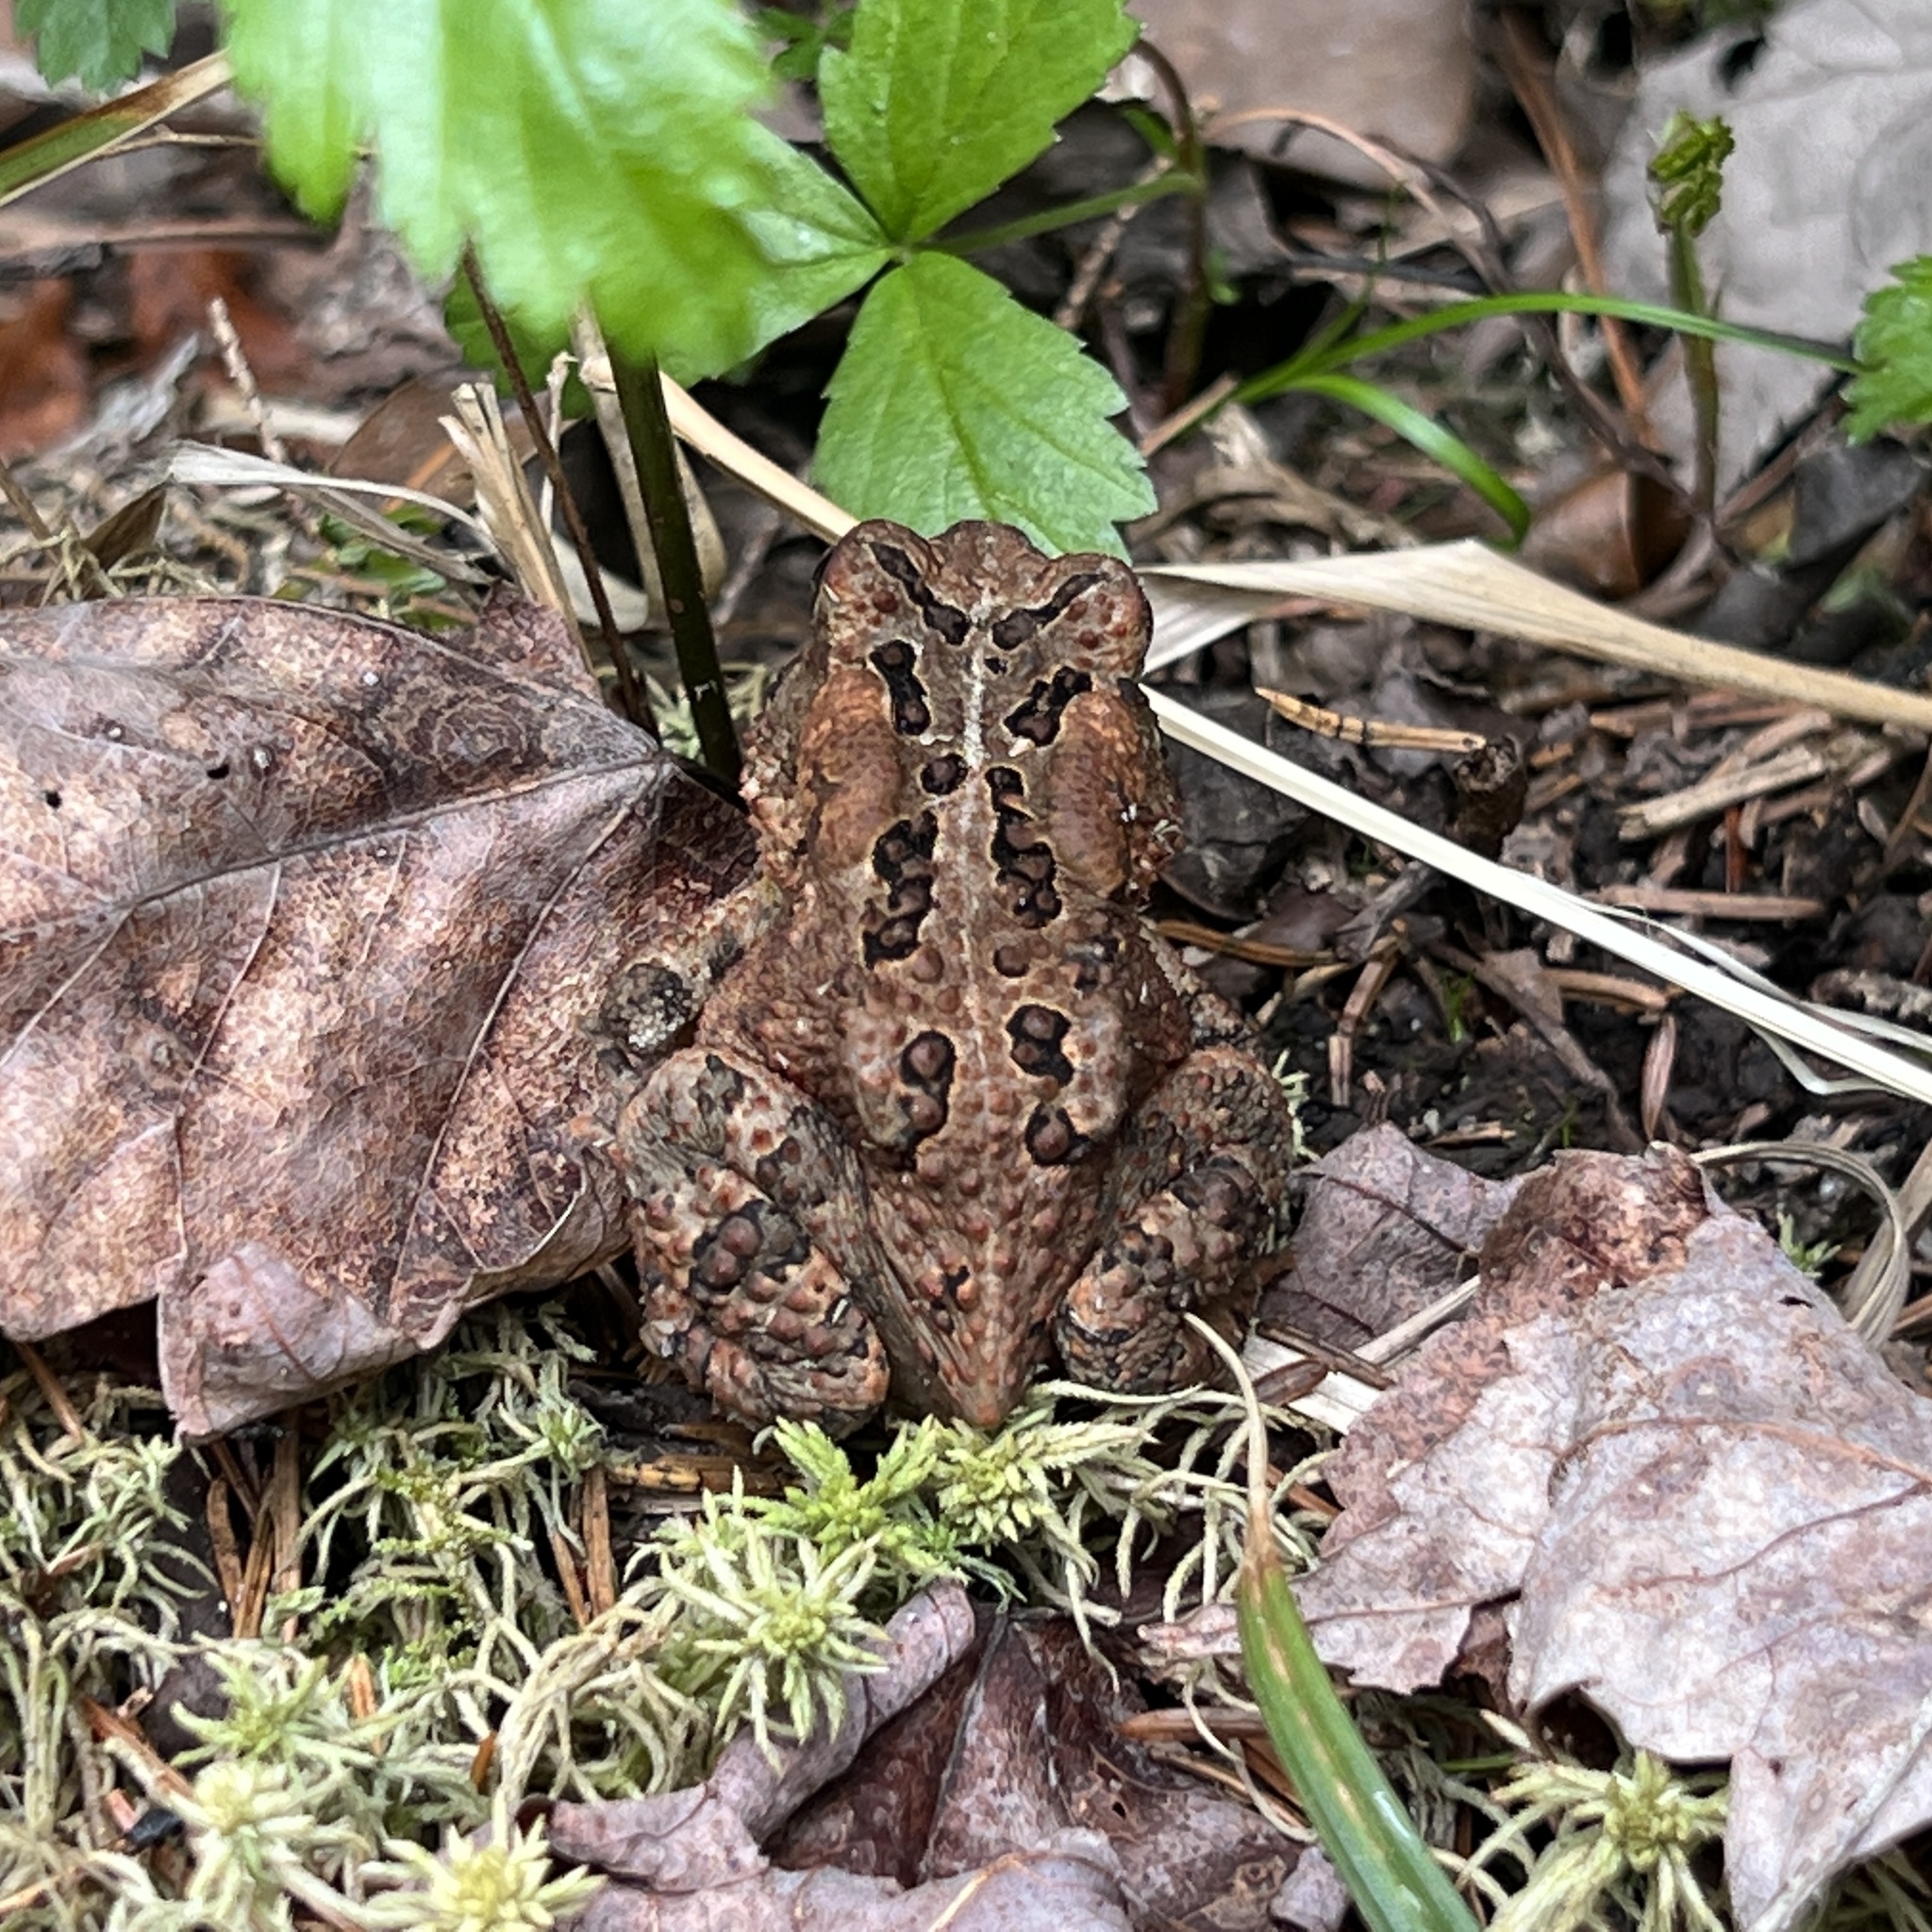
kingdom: Animalia
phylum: Chordata
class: Amphibia
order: Anura
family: Bufonidae
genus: Anaxyrus
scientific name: Anaxyrus americanus
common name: American toad
